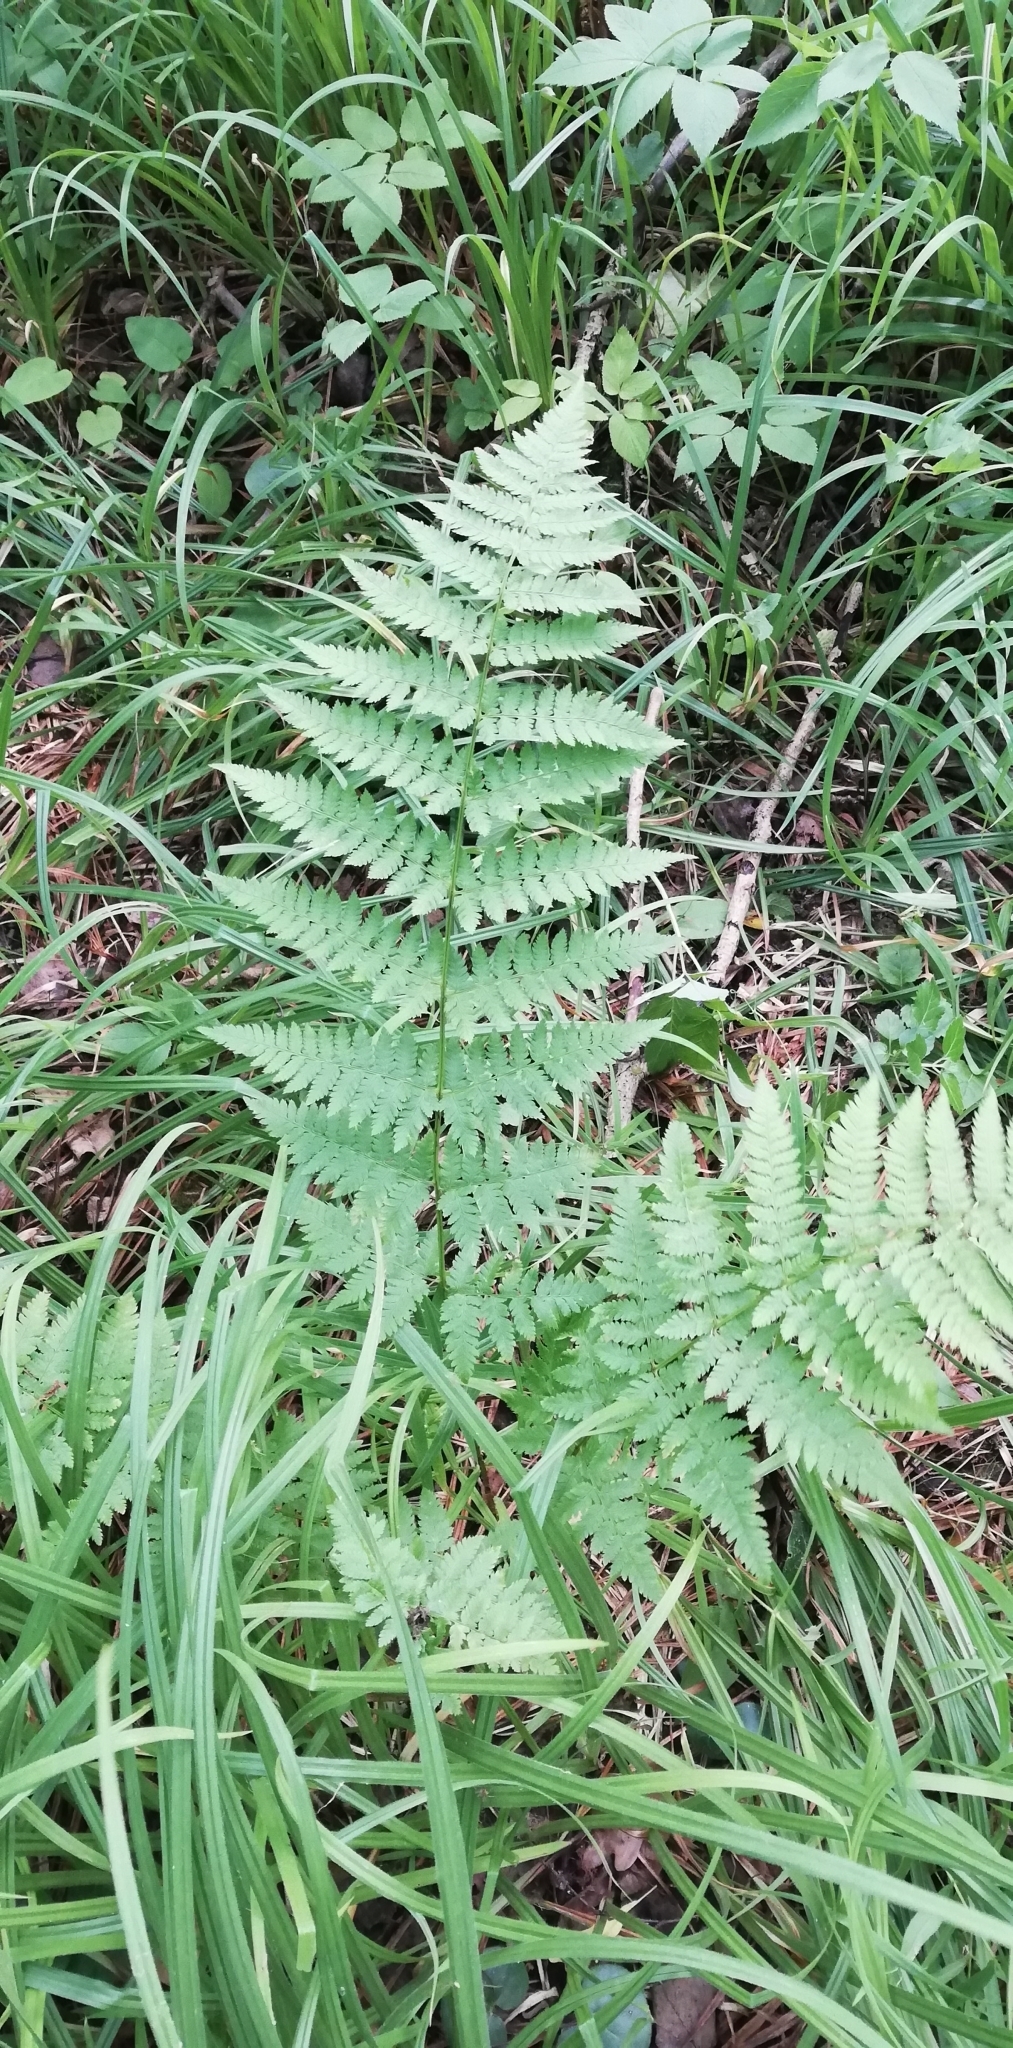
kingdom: Plantae
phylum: Tracheophyta
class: Polypodiopsida
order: Polypodiales
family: Dryopteridaceae
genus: Dryopteris
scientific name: Dryopteris carthusiana
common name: Narrow buckler-fern
